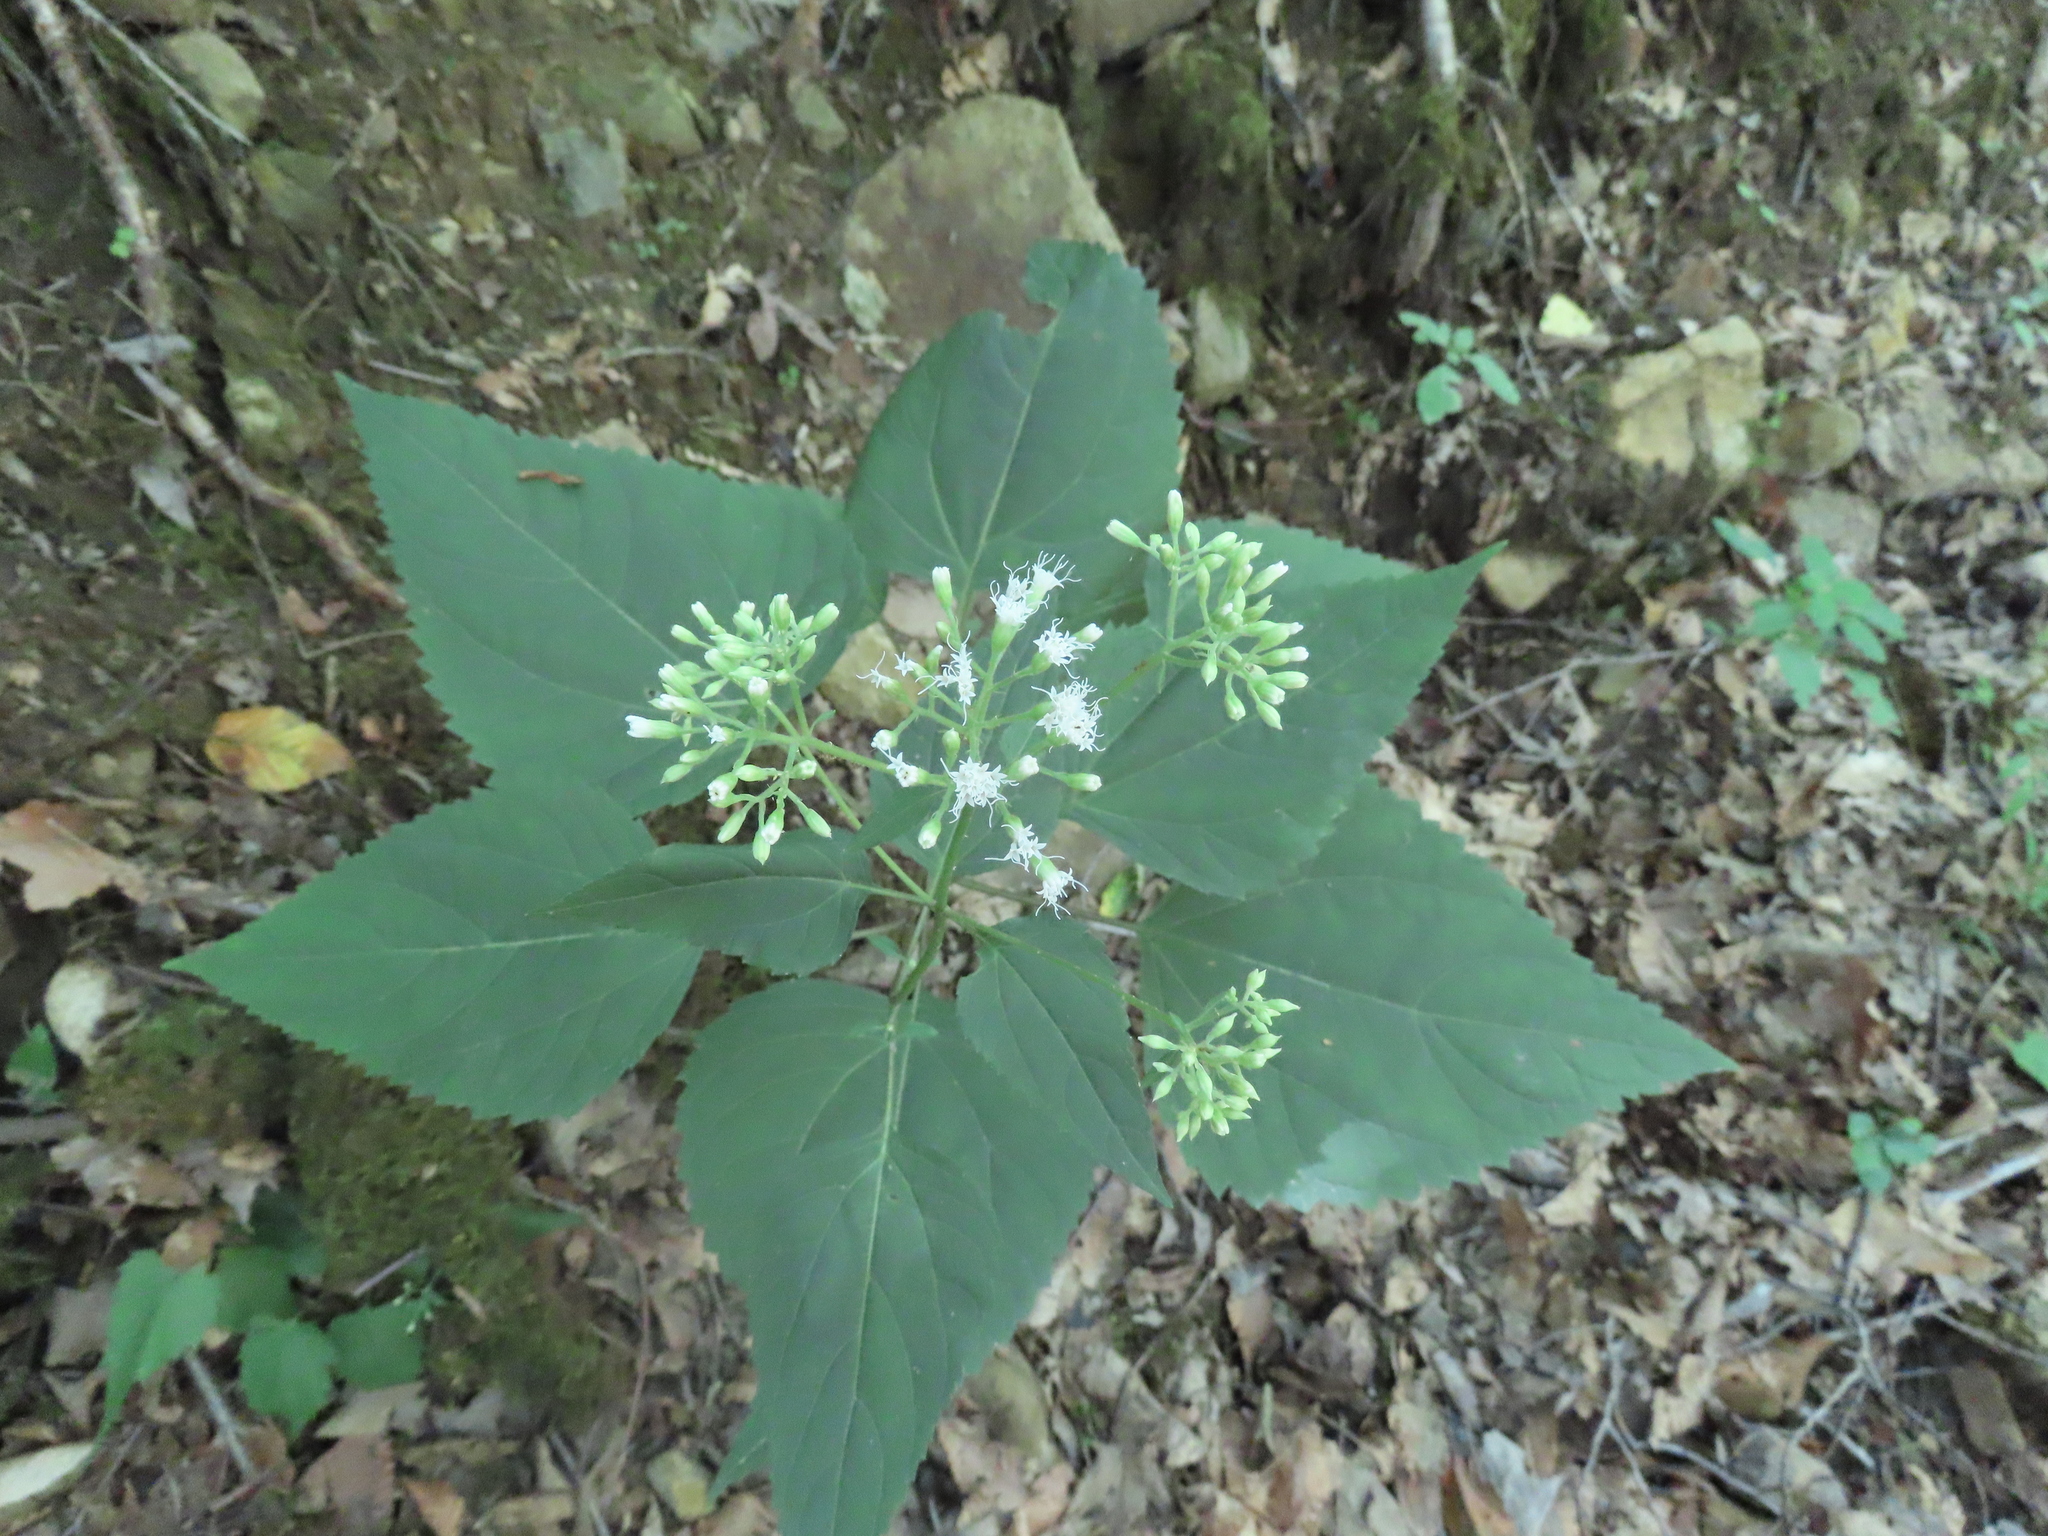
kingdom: Plantae
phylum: Tracheophyta
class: Magnoliopsida
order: Asterales
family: Asteraceae
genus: Ageratina
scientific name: Ageratina altissima
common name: White snakeroot
